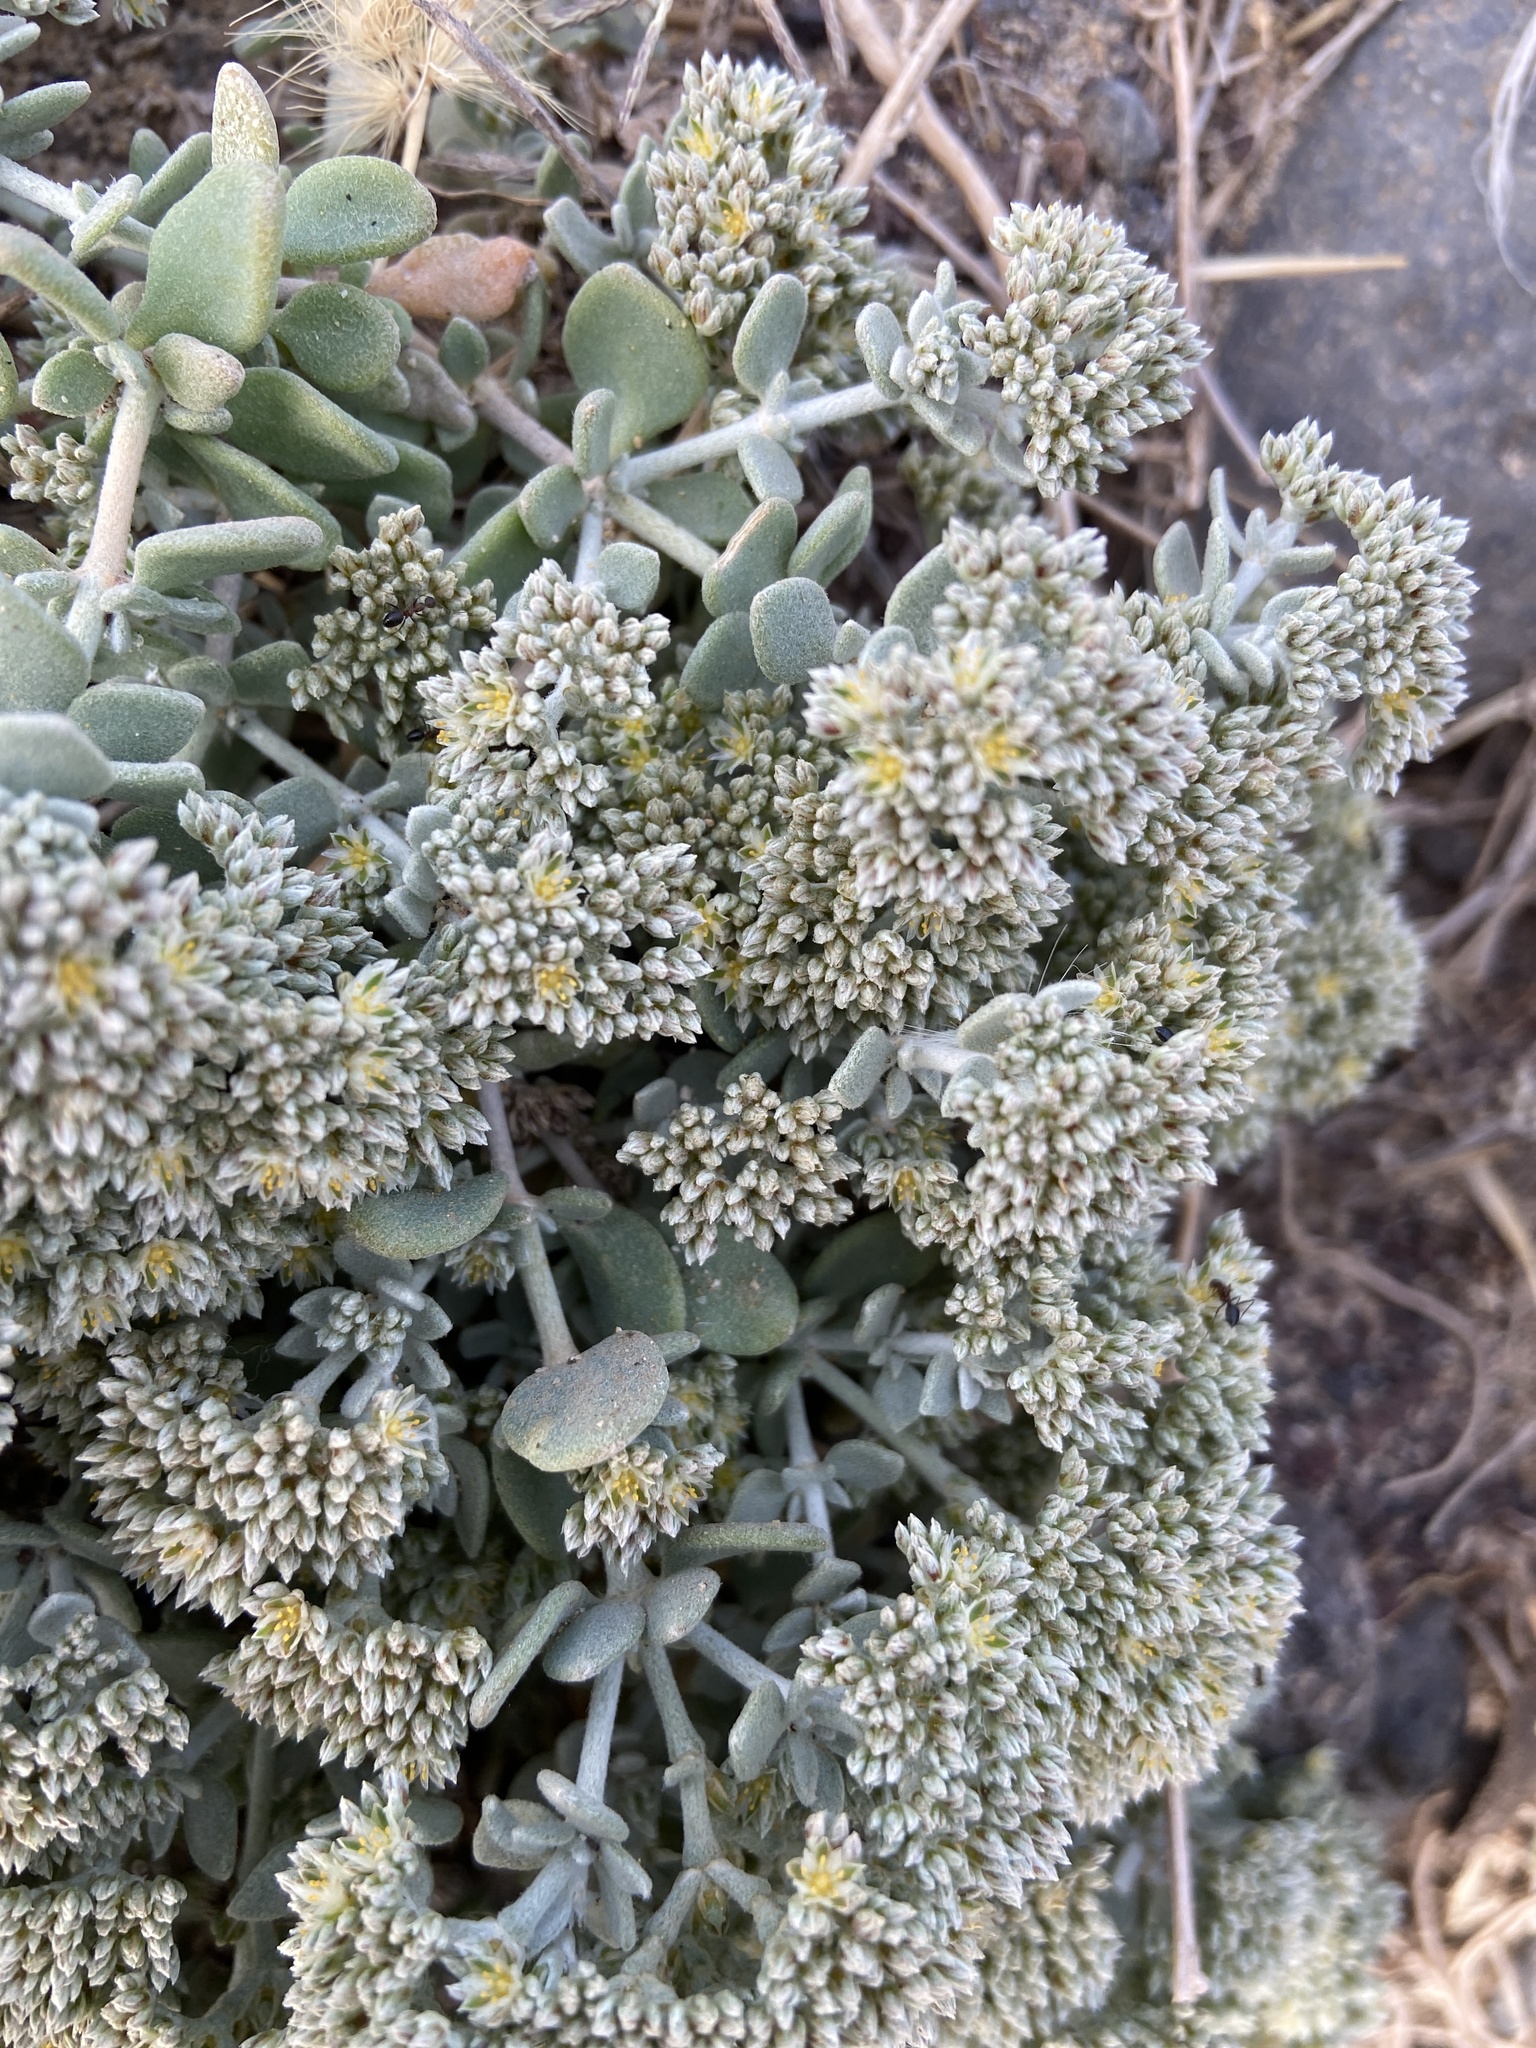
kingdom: Plantae
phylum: Tracheophyta
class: Magnoliopsida
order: Caryophyllales
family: Caryophyllaceae
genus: Polycarpaea
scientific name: Polycarpaea nivea
